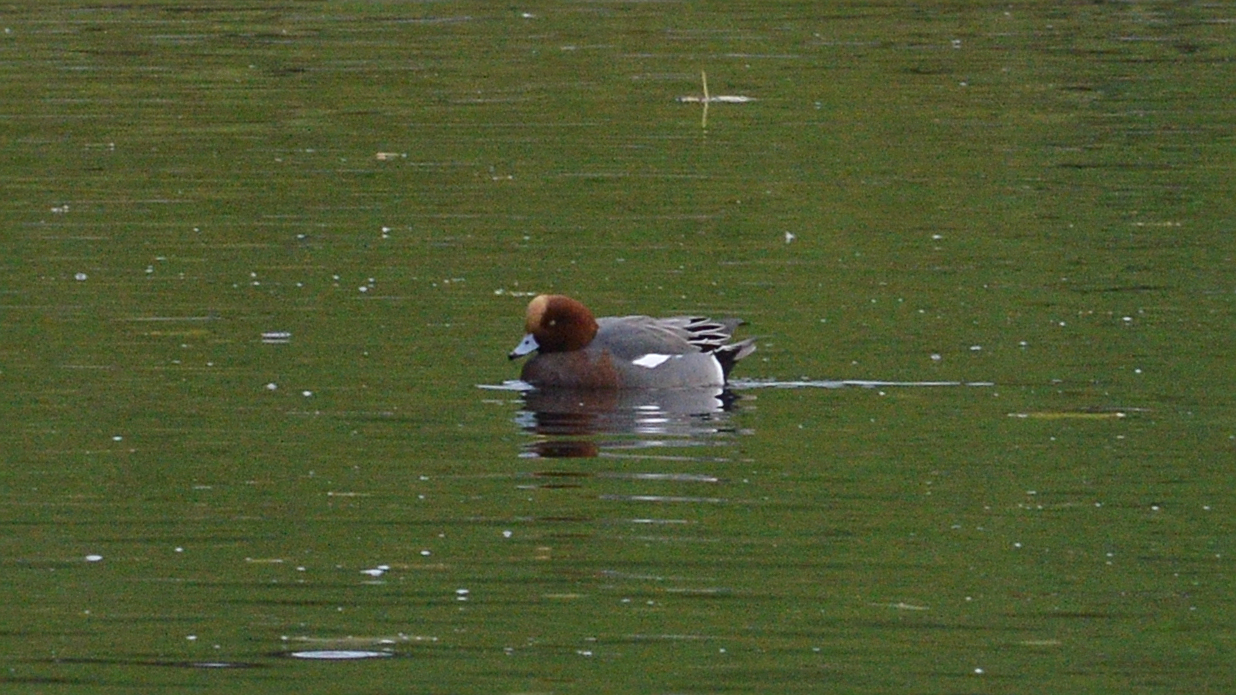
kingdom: Animalia
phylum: Chordata
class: Aves
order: Anseriformes
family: Anatidae
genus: Mareca
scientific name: Mareca penelope
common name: Eurasian wigeon
